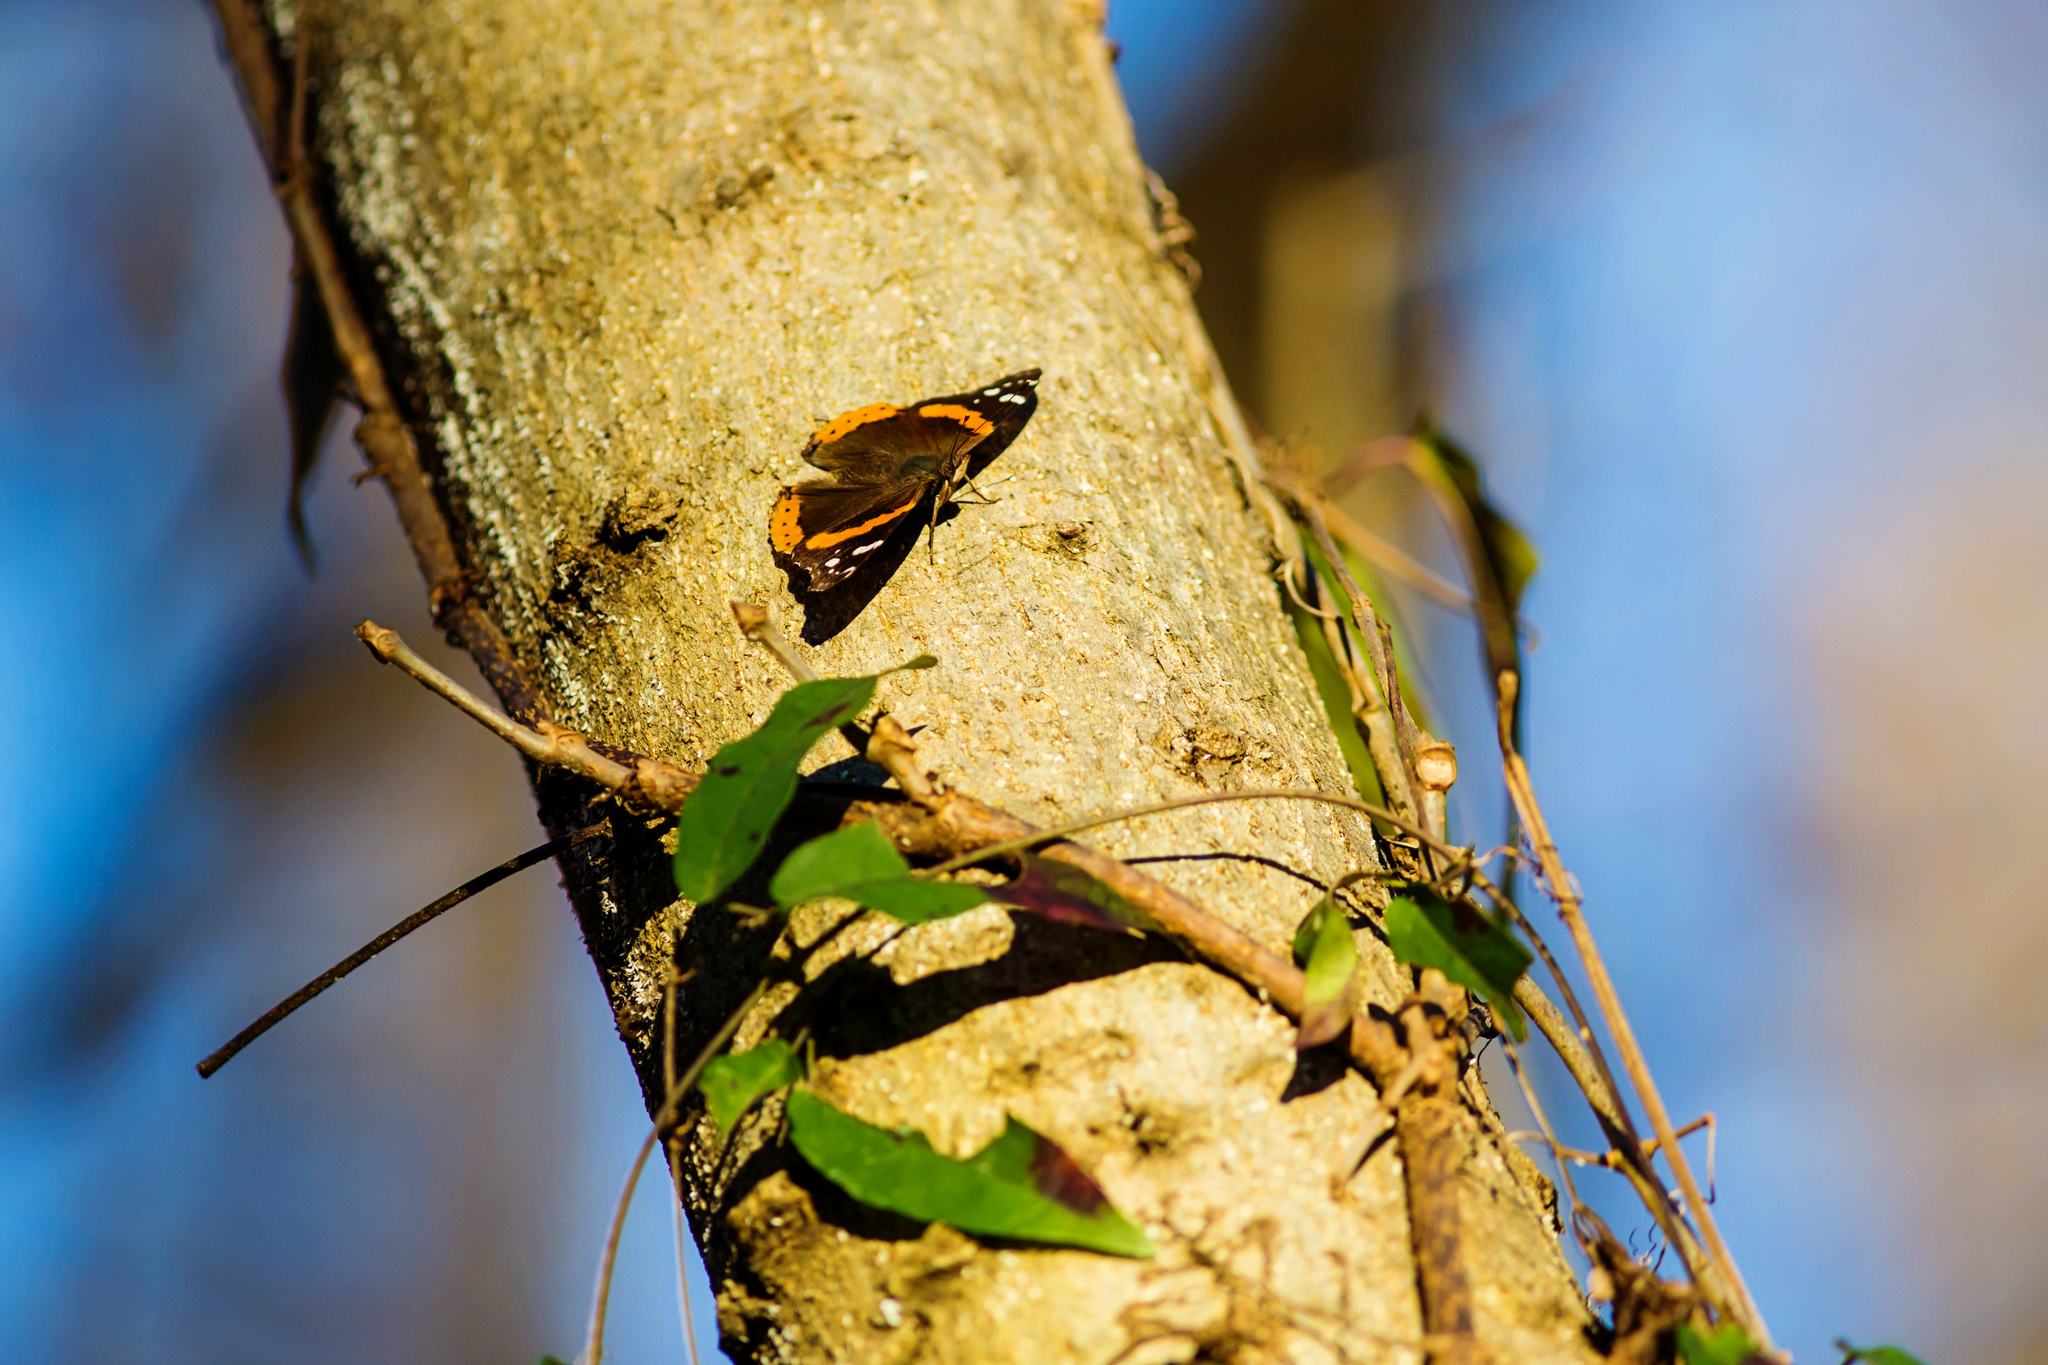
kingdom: Animalia
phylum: Arthropoda
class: Insecta
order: Lepidoptera
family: Nymphalidae
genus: Vanessa
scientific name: Vanessa atalanta
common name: Red admiral
